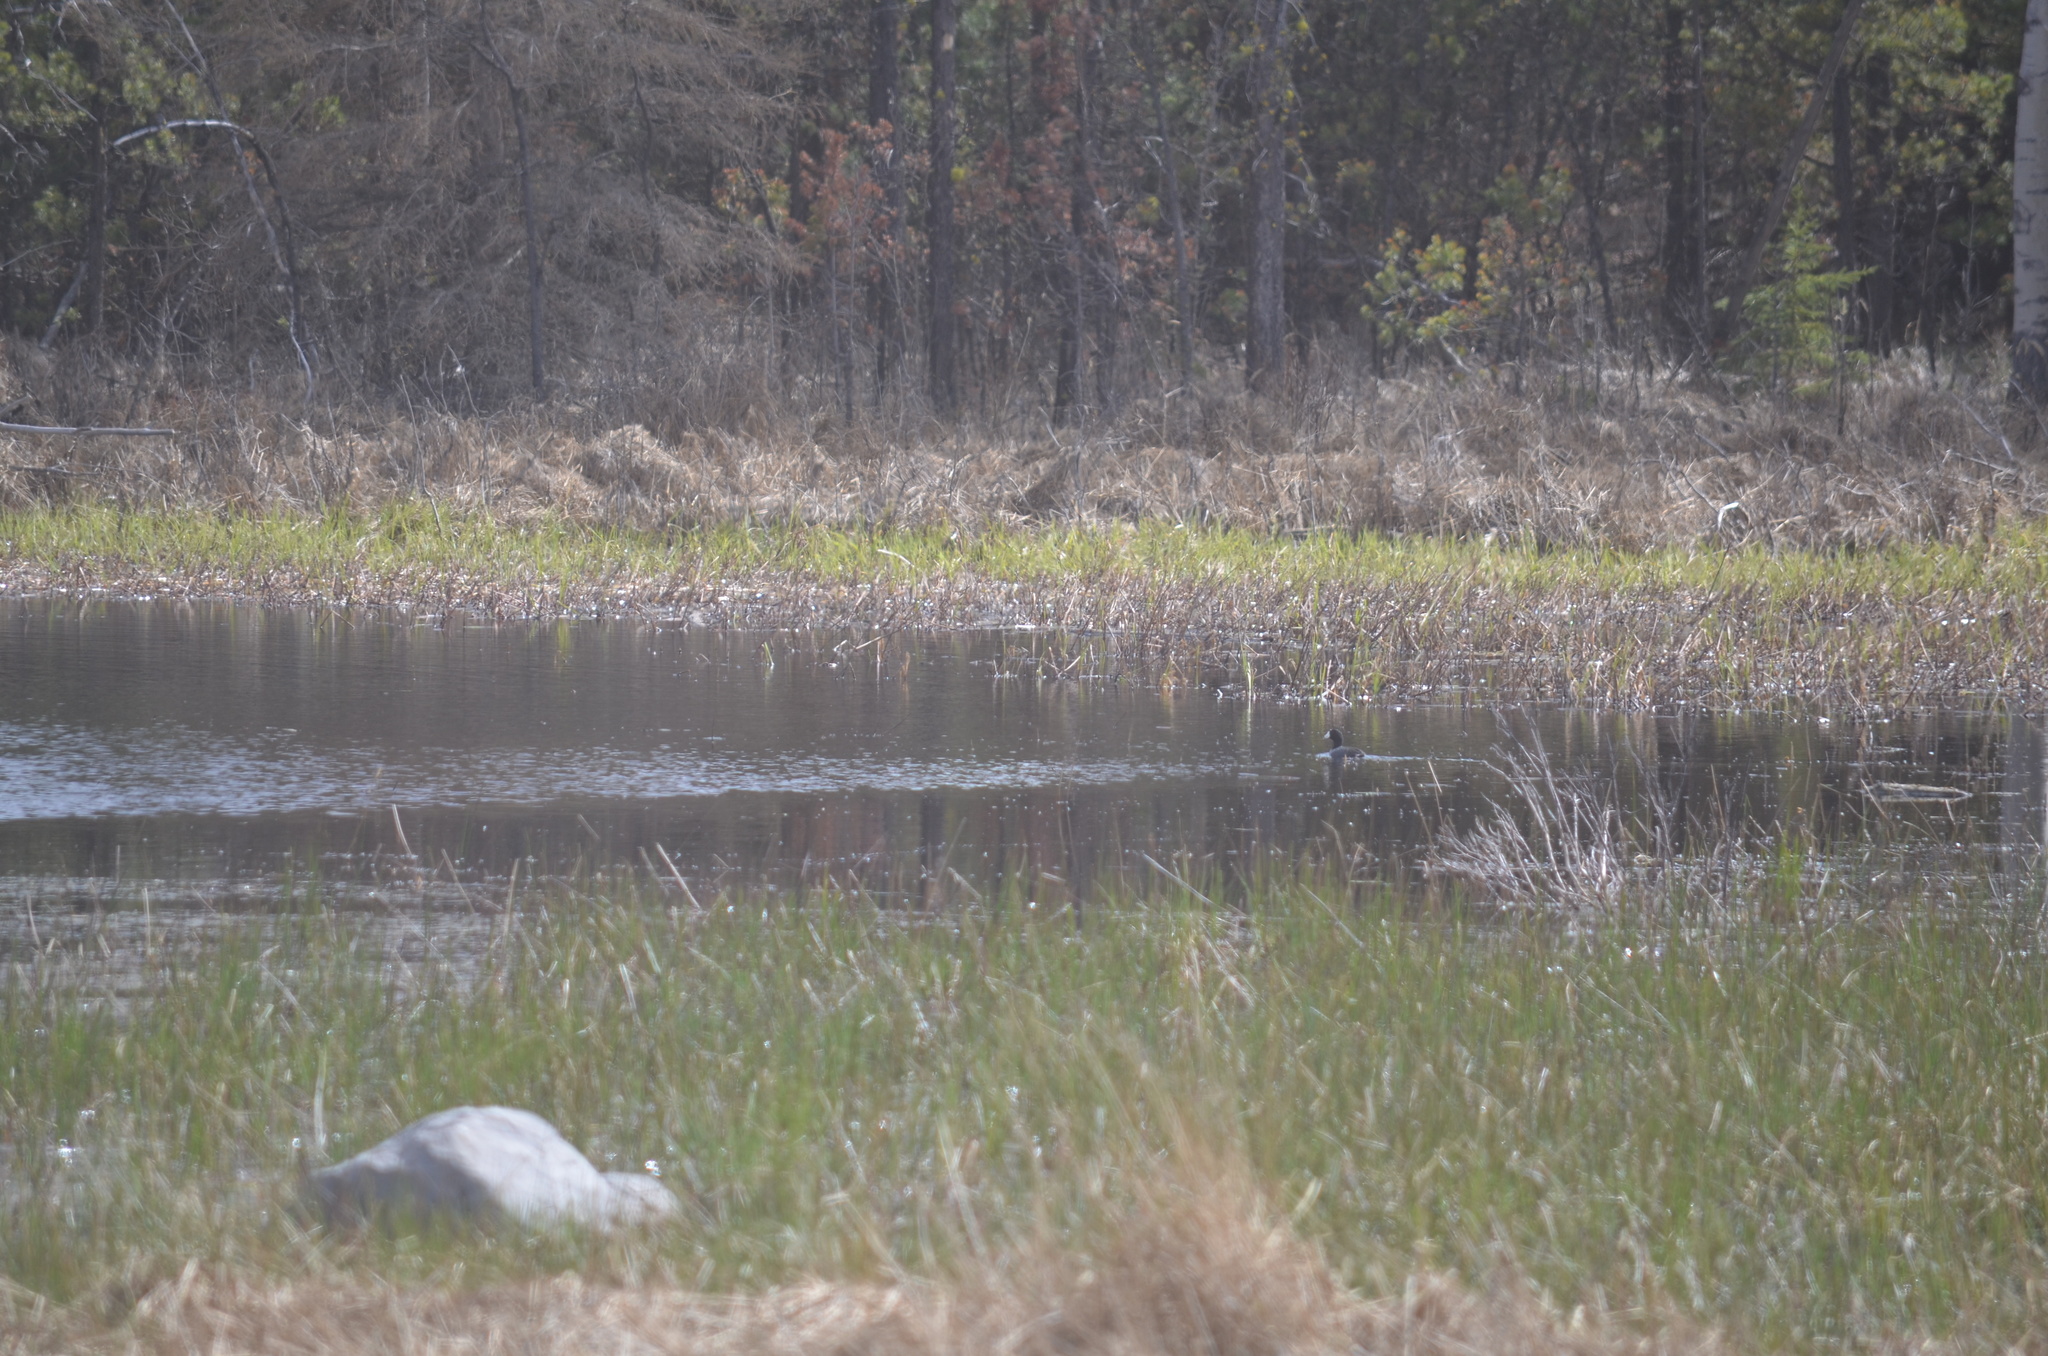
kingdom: Animalia
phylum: Chordata
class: Aves
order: Gruiformes
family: Rallidae
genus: Fulica
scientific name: Fulica americana
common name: American coot
